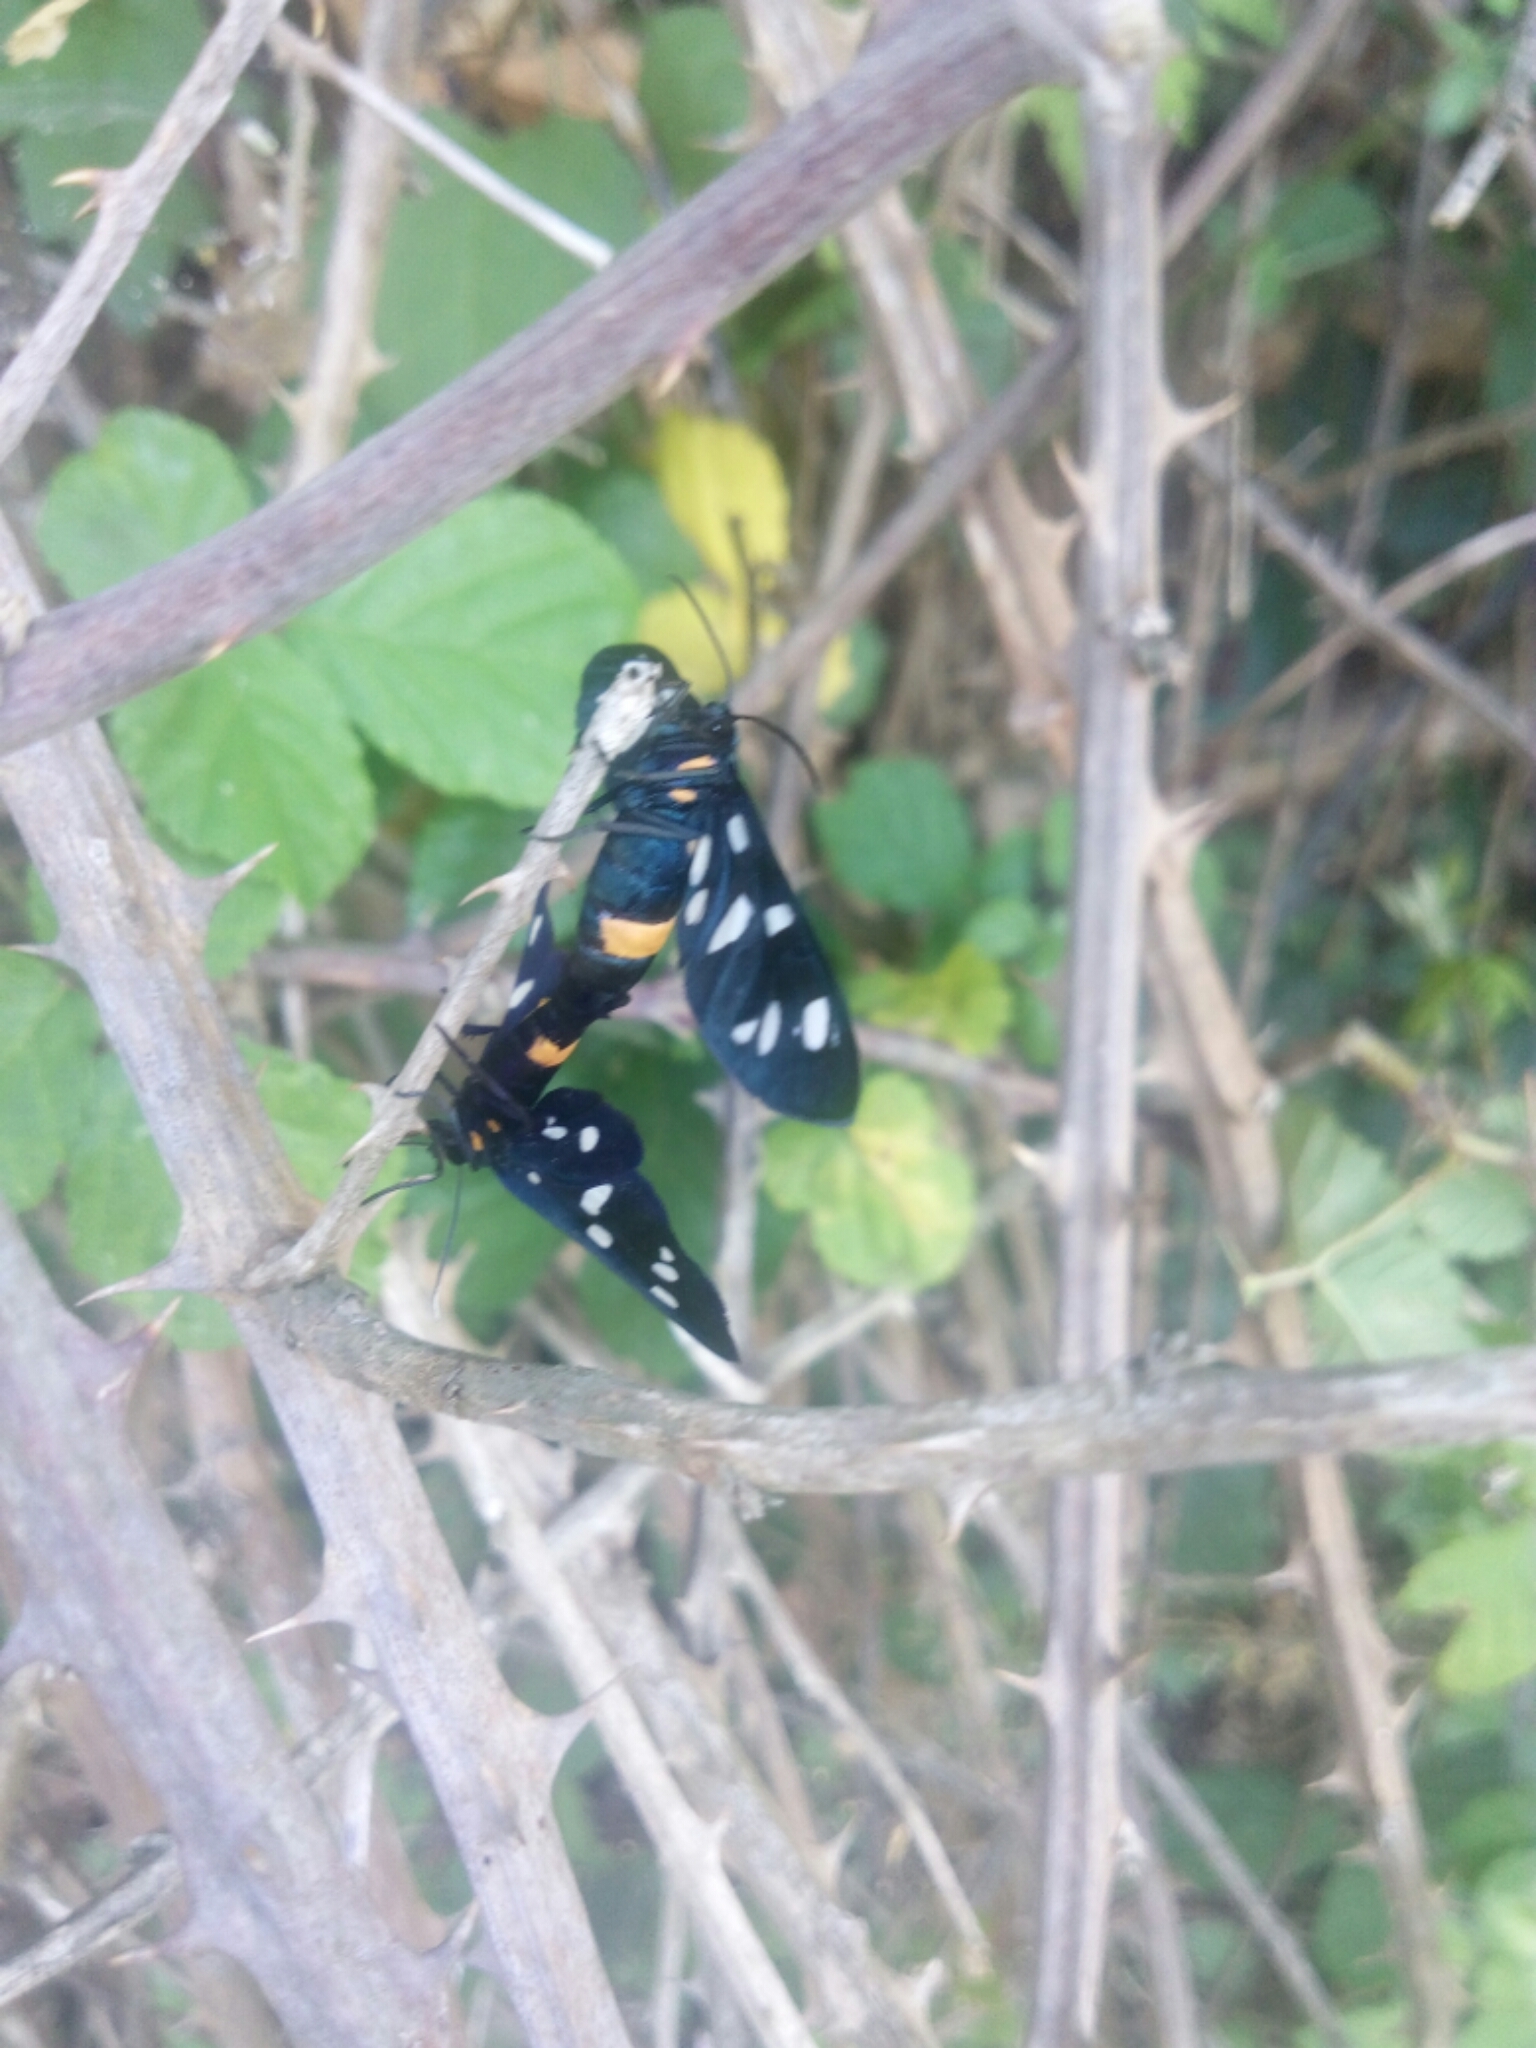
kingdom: Animalia
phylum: Arthropoda
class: Insecta
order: Lepidoptera
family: Erebidae
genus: Amata
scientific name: Amata phegea
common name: Nine-spotted
